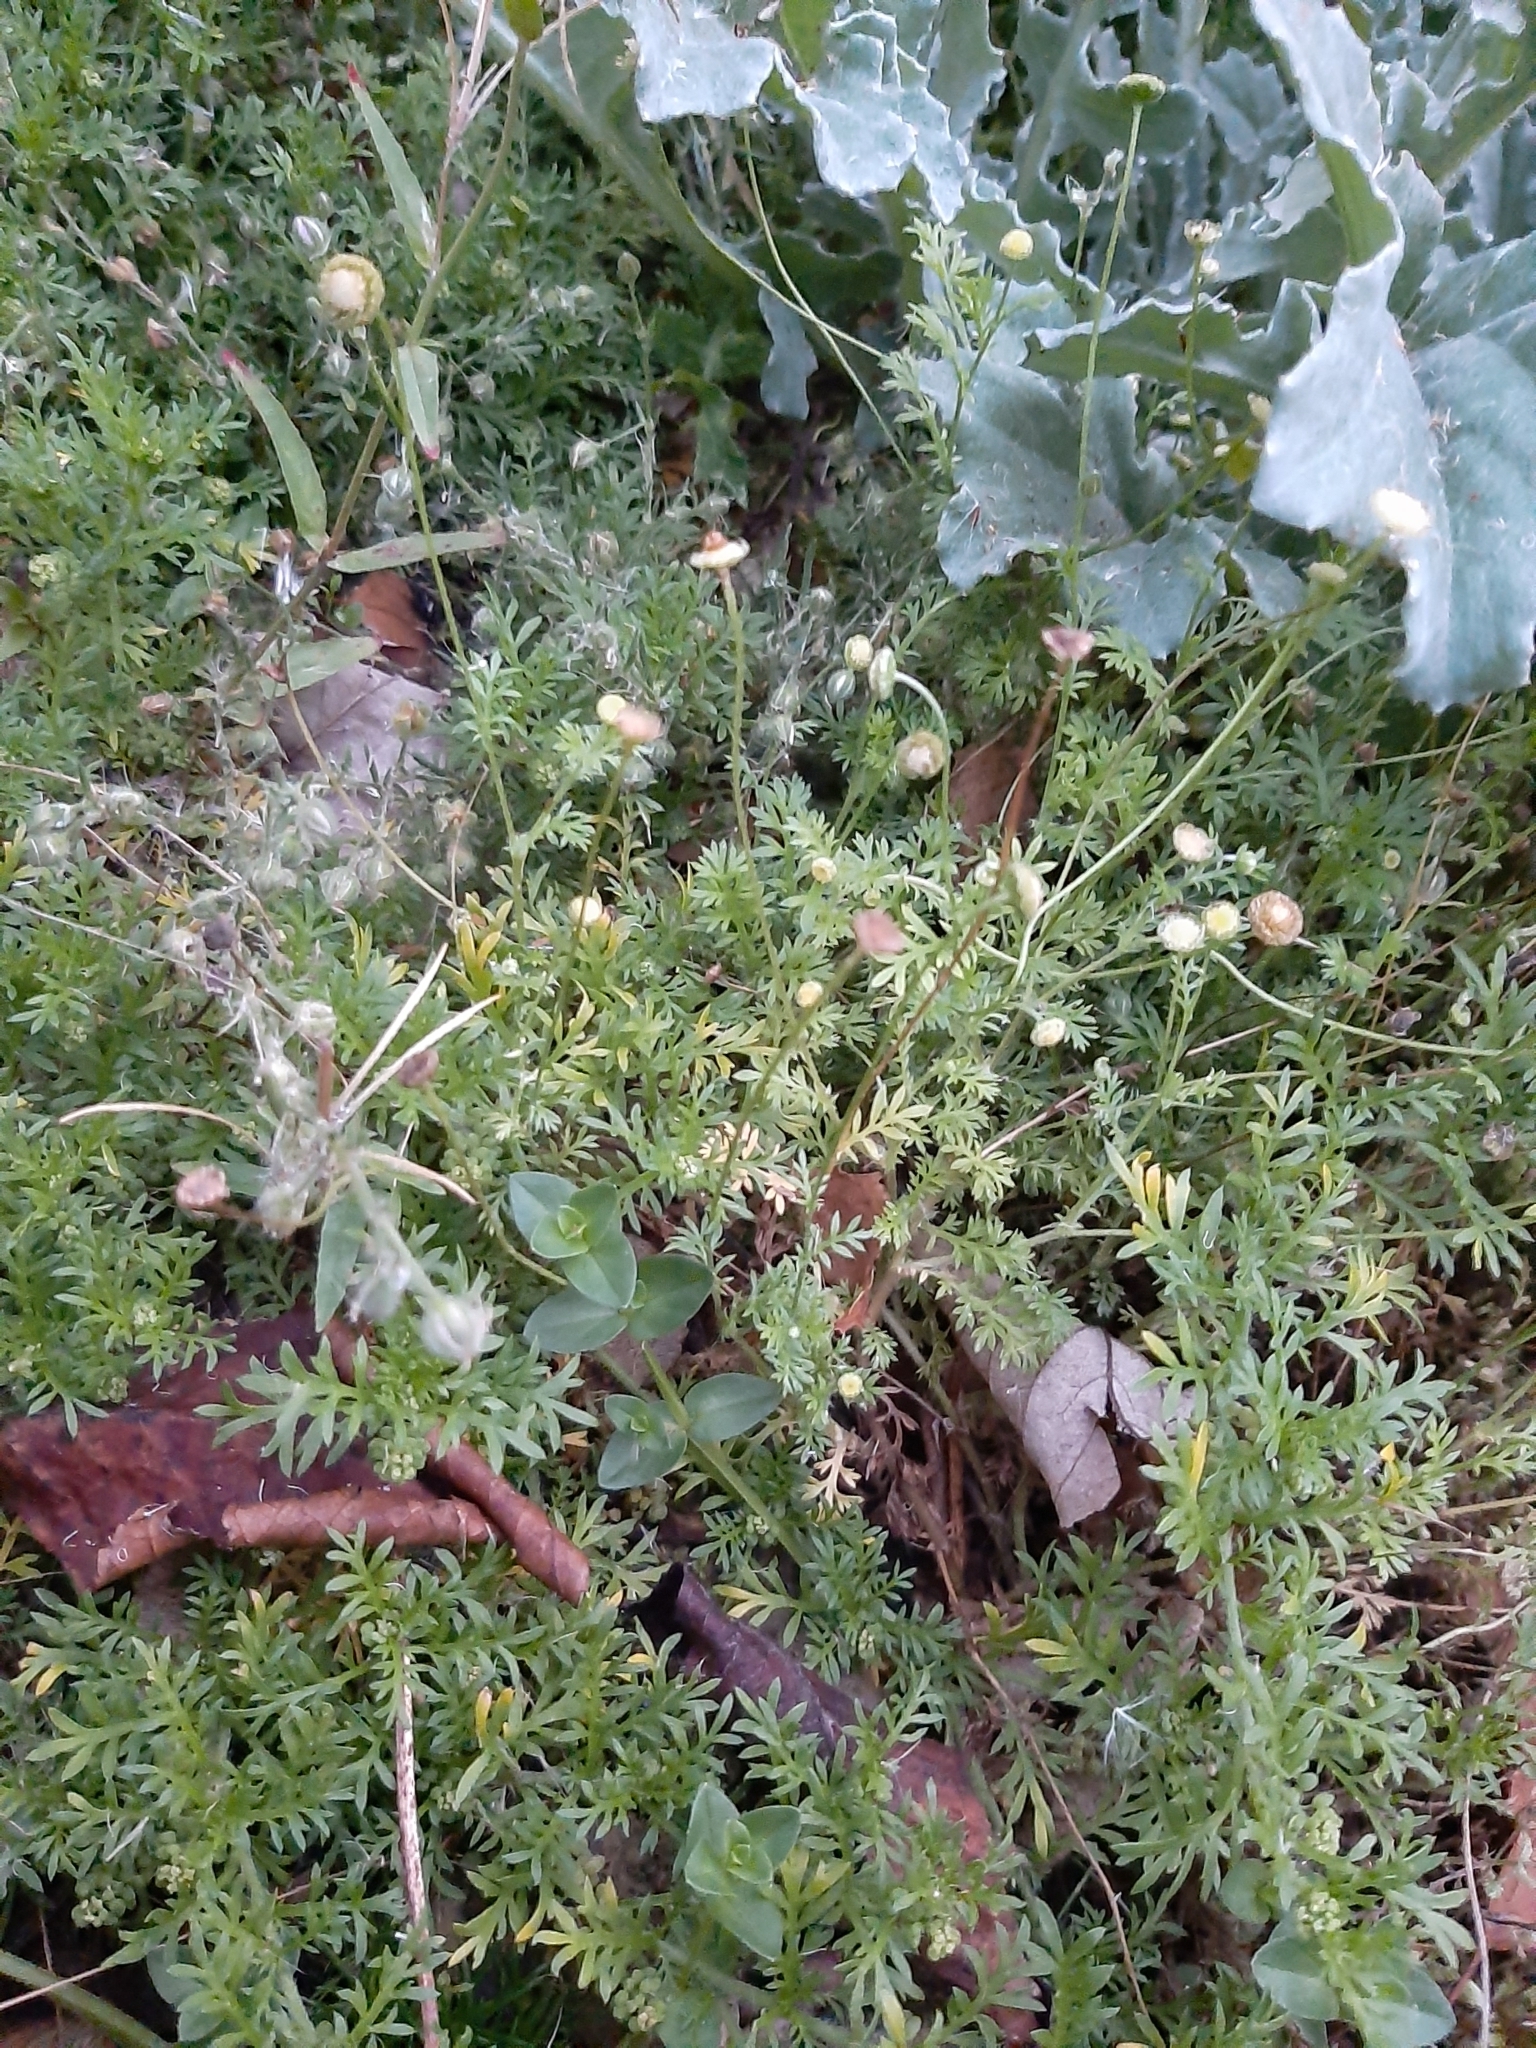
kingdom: Plantae
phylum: Tracheophyta
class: Magnoliopsida
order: Asterales
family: Asteraceae
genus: Cotula
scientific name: Cotula australis
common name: Australian waterbuttons
